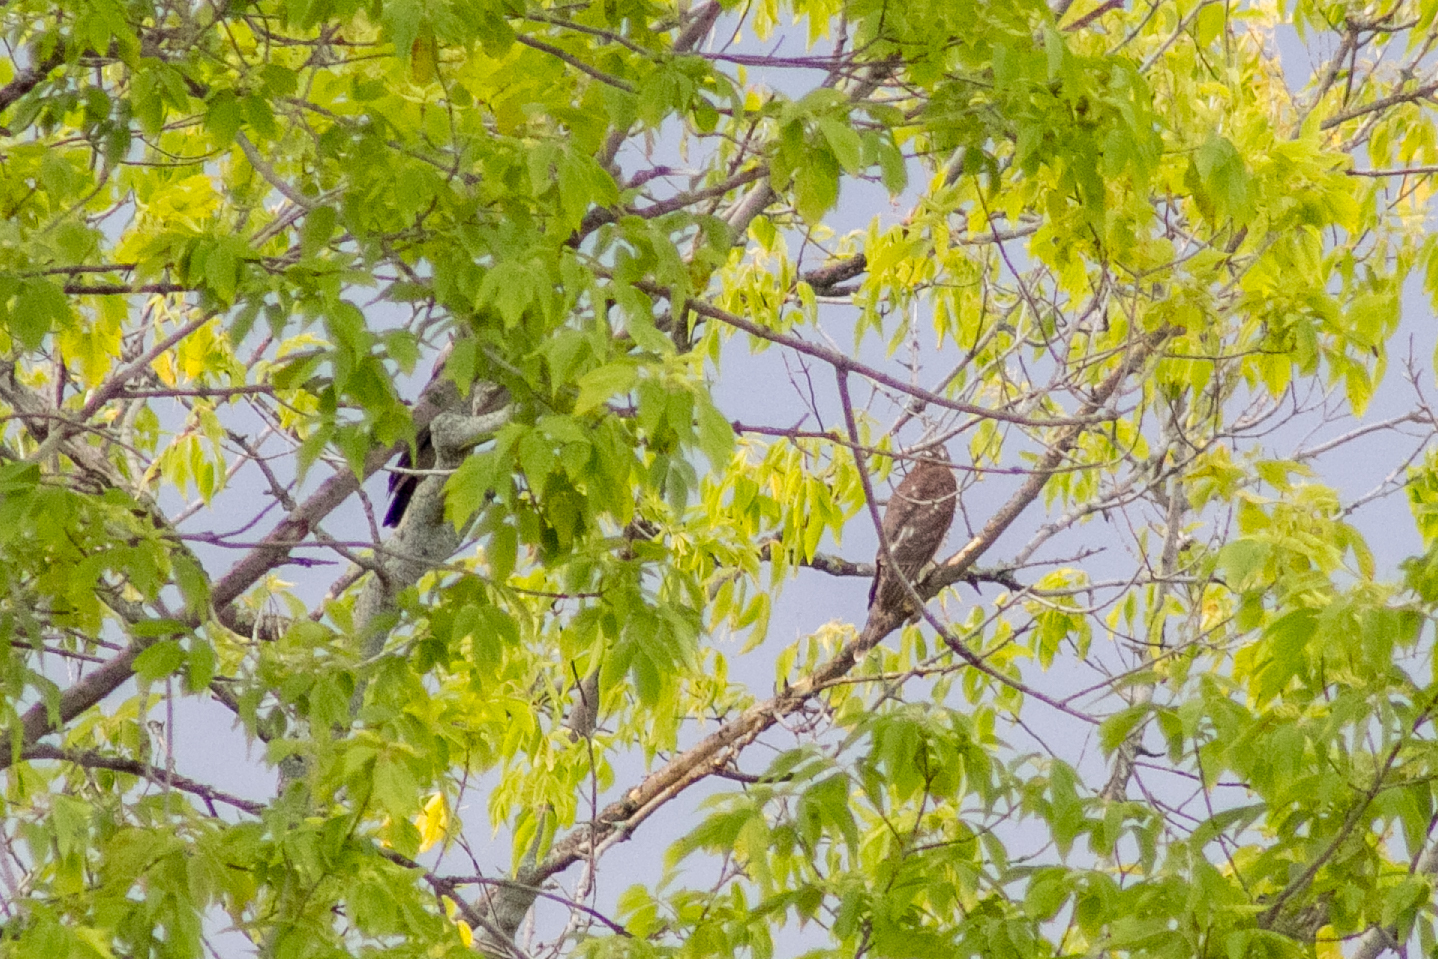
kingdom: Animalia
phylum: Chordata
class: Aves
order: Accipitriformes
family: Accipitridae
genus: Accipiter
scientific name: Accipiter nisus
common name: Eurasian sparrowhawk
